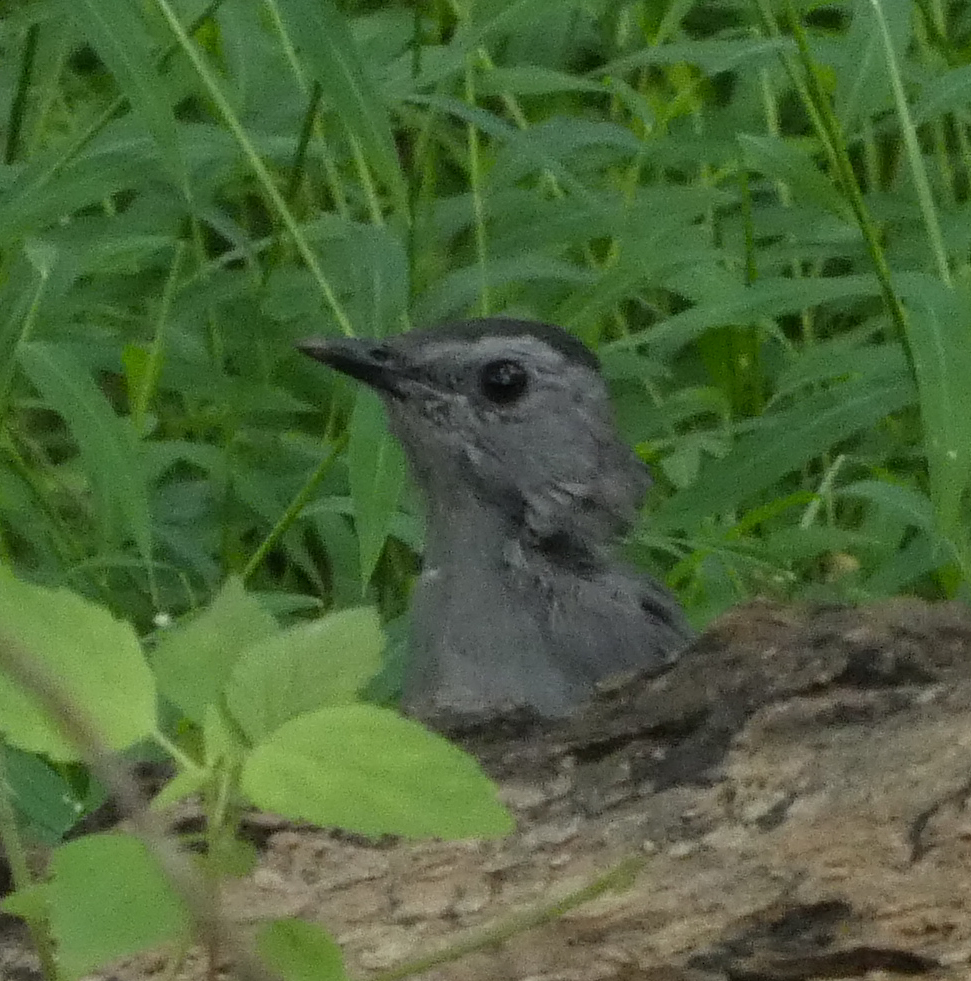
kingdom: Animalia
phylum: Chordata
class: Aves
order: Passeriformes
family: Mimidae
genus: Dumetella
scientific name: Dumetella carolinensis
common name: Gray catbird
